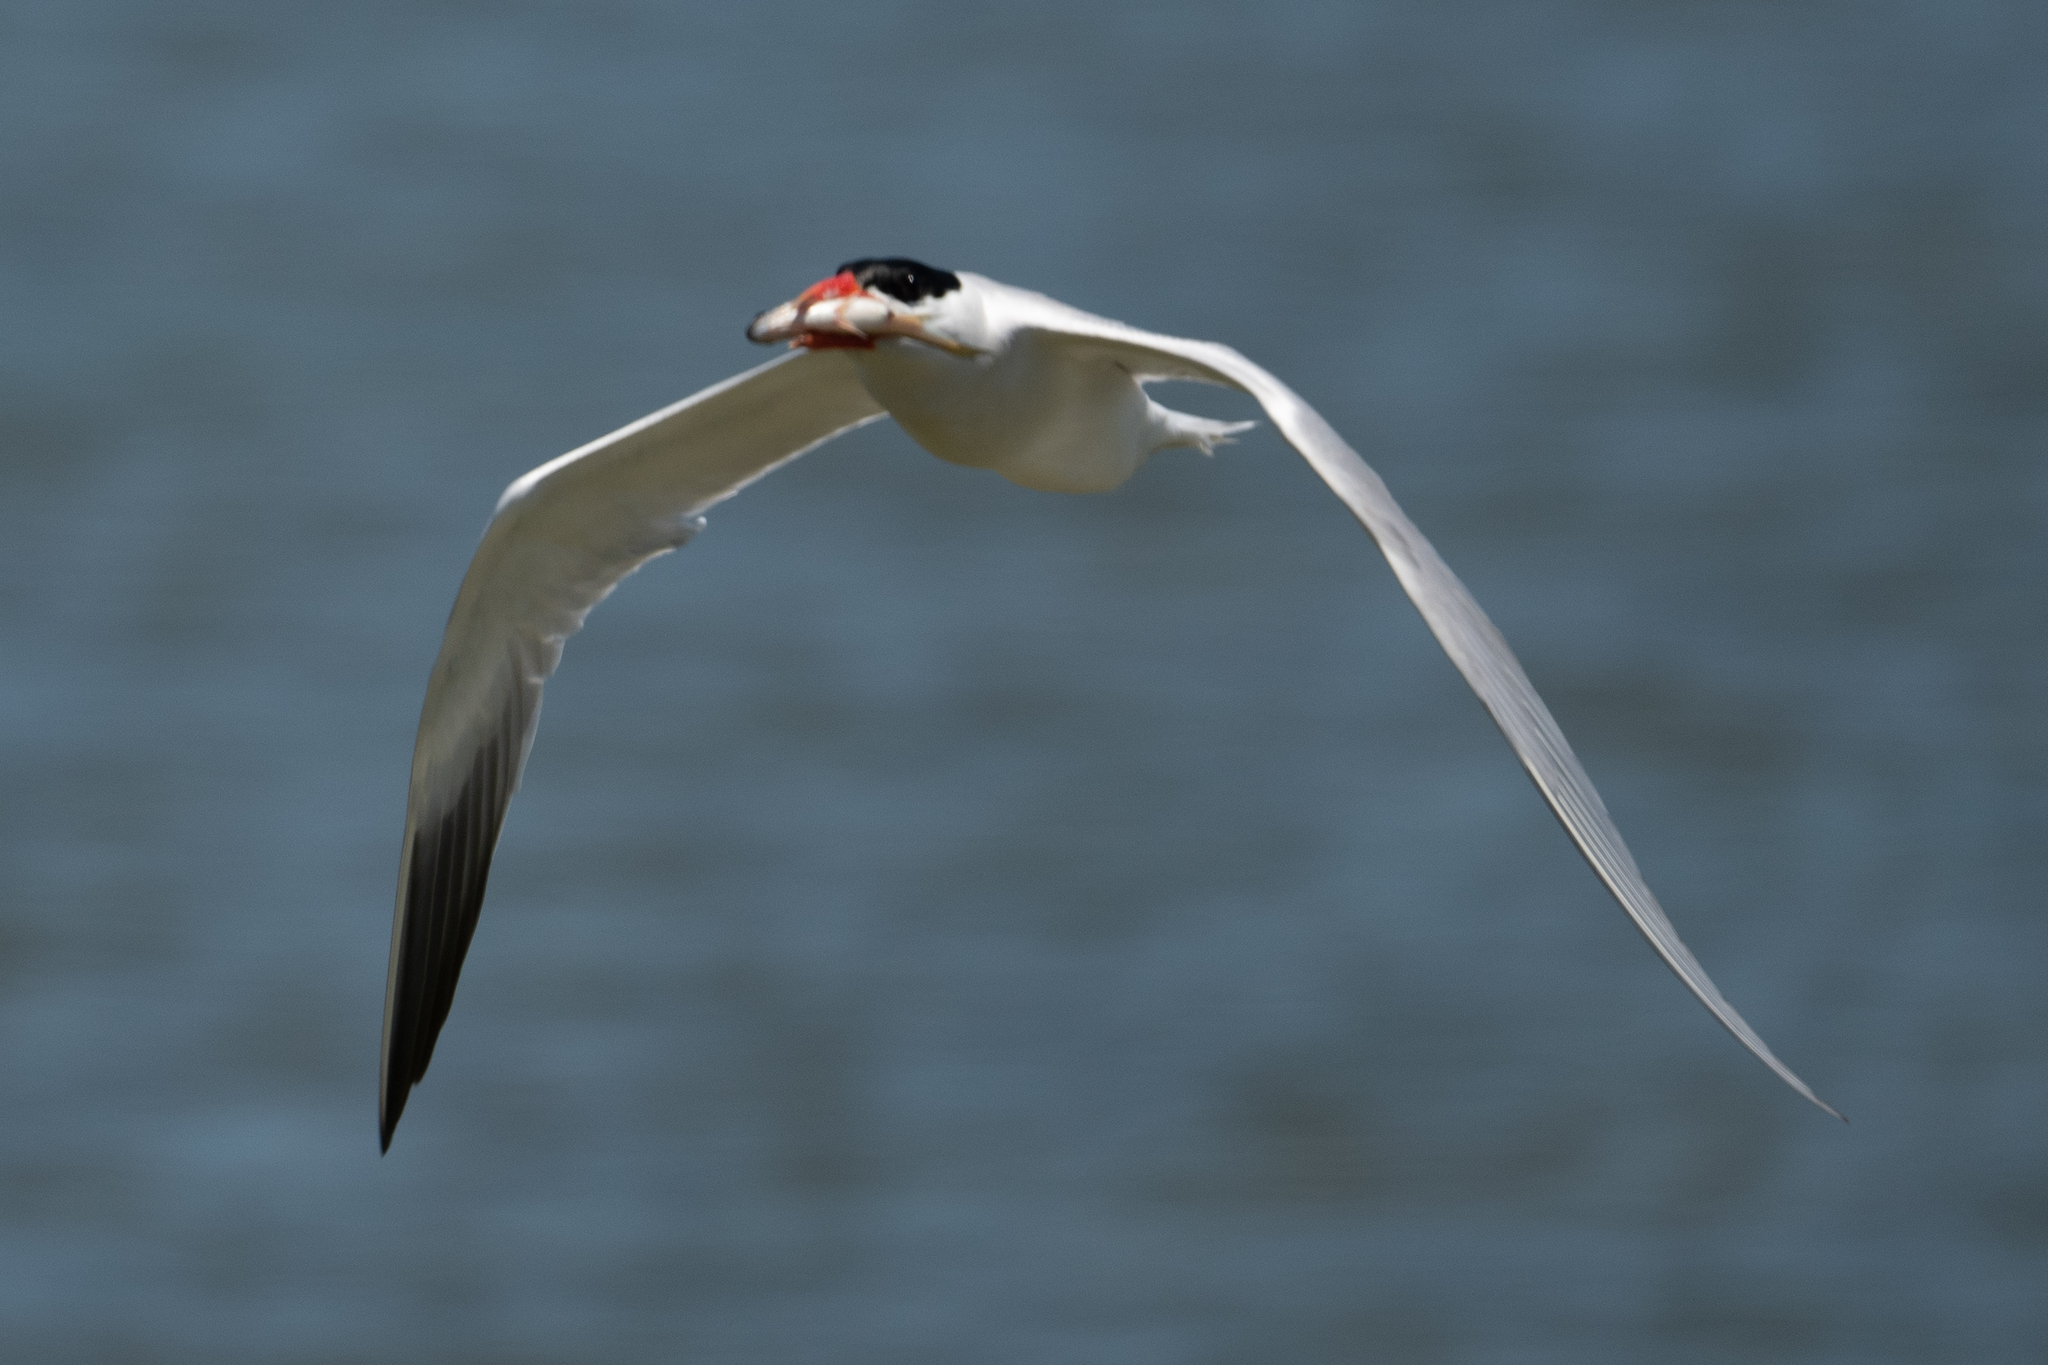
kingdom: Animalia
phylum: Chordata
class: Aves
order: Charadriiformes
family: Laridae
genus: Hydroprogne
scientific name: Hydroprogne caspia
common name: Caspian tern
